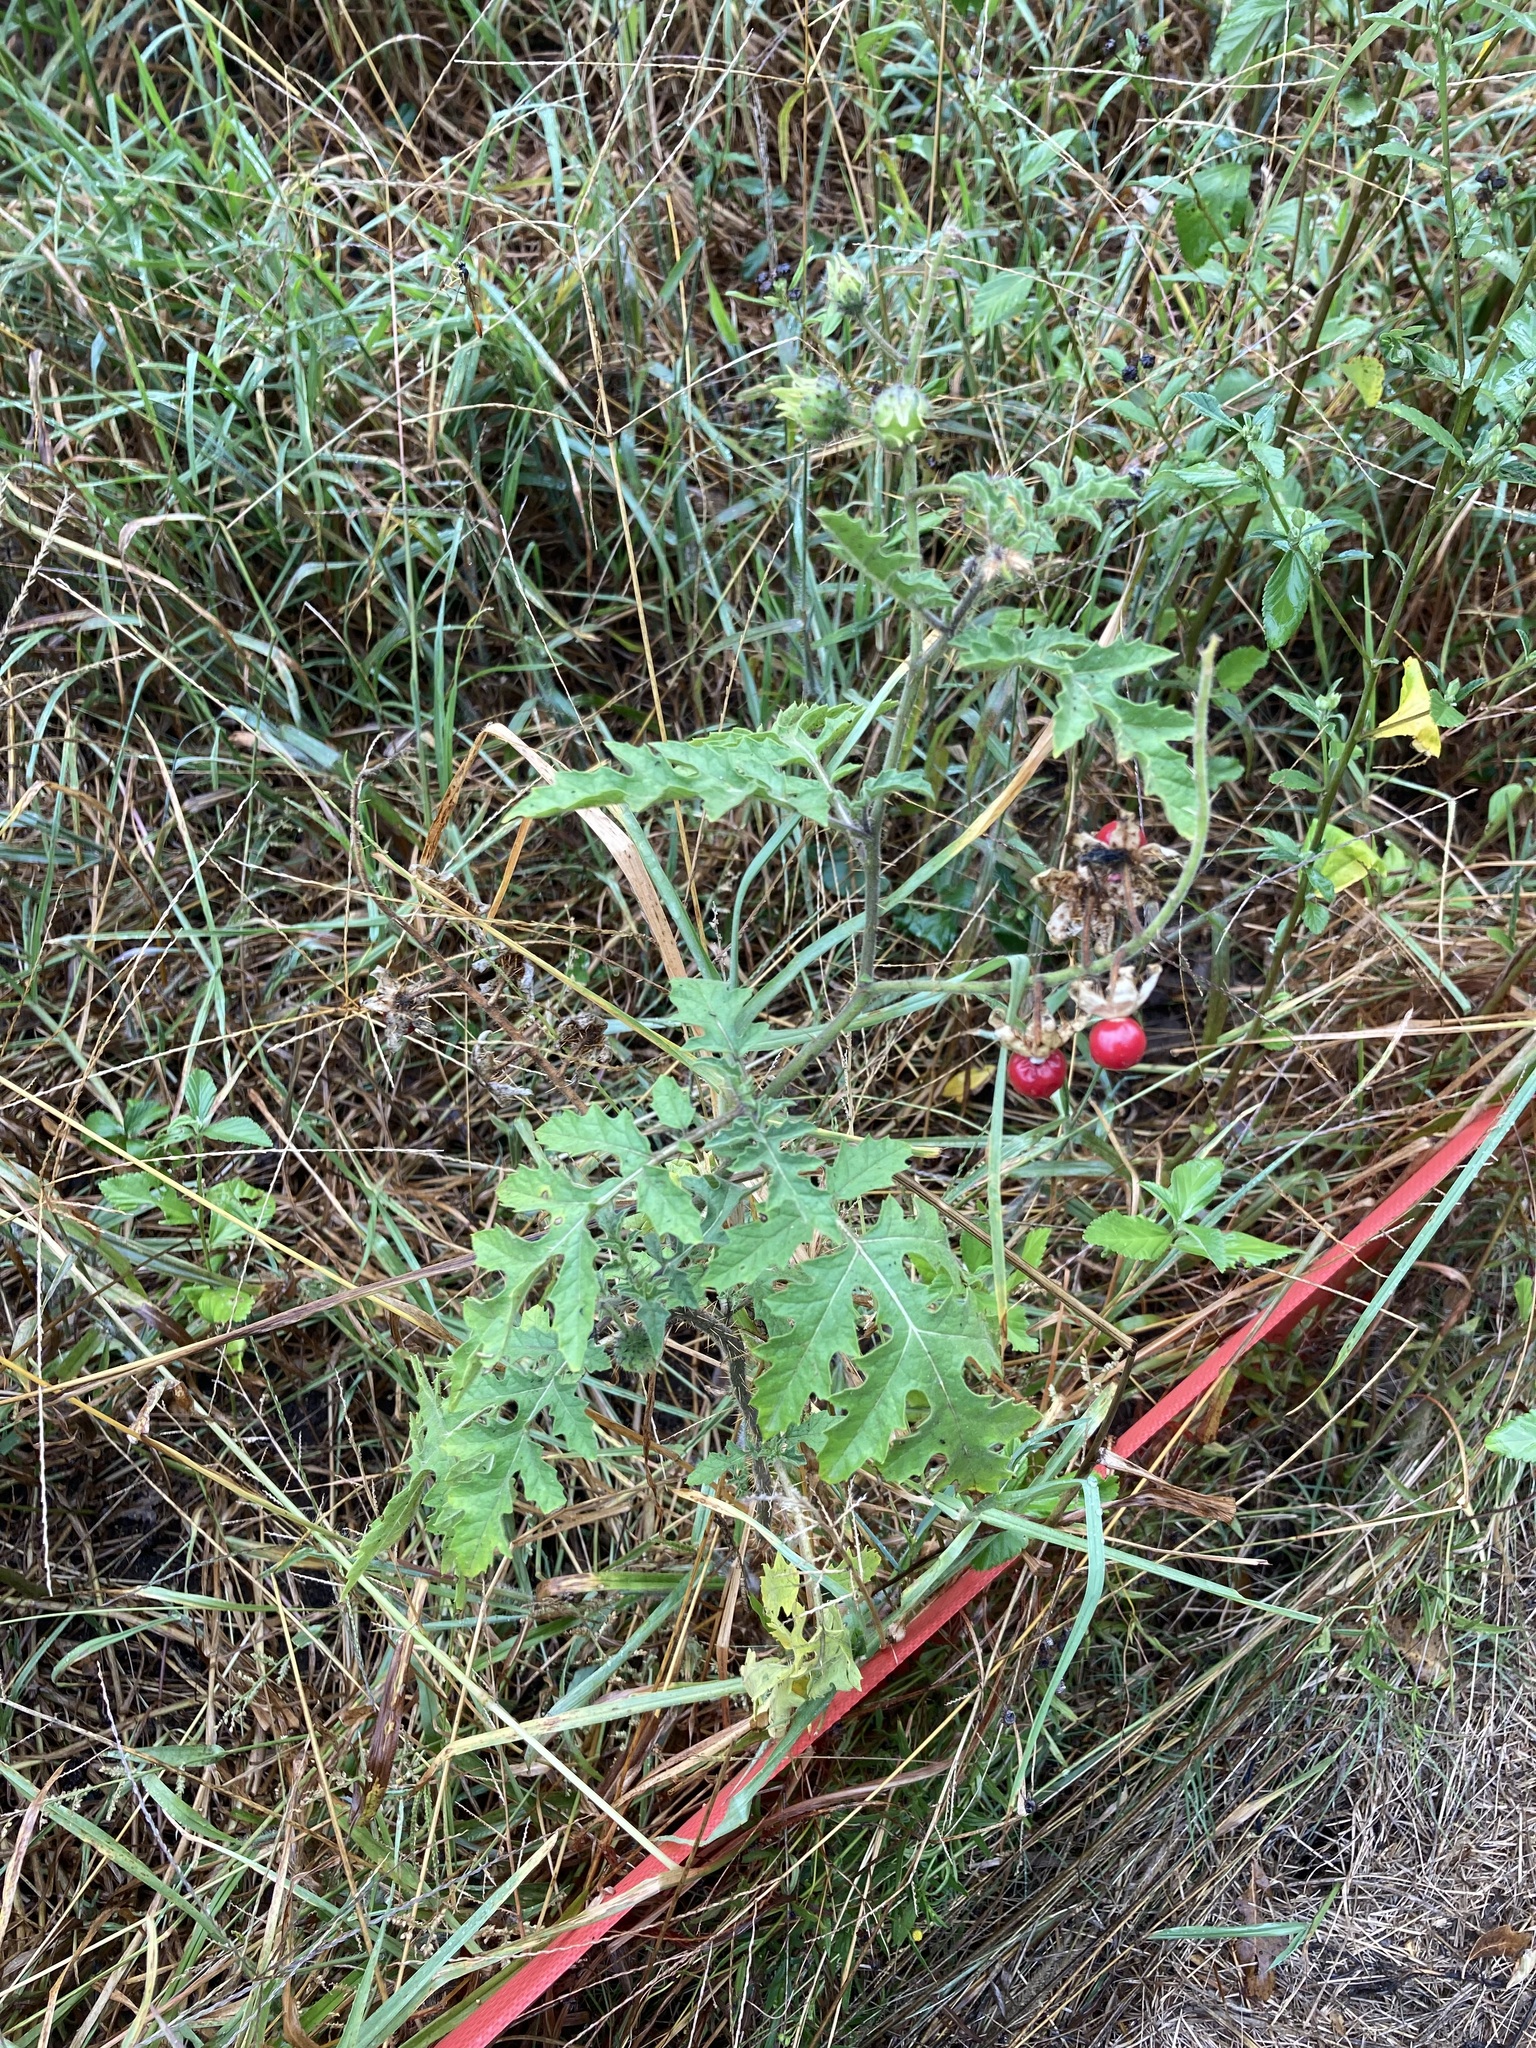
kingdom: Plantae
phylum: Tracheophyta
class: Magnoliopsida
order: Solanales
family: Solanaceae
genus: Solanum
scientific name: Solanum sisymbriifolium
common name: Red buffalo-bur
